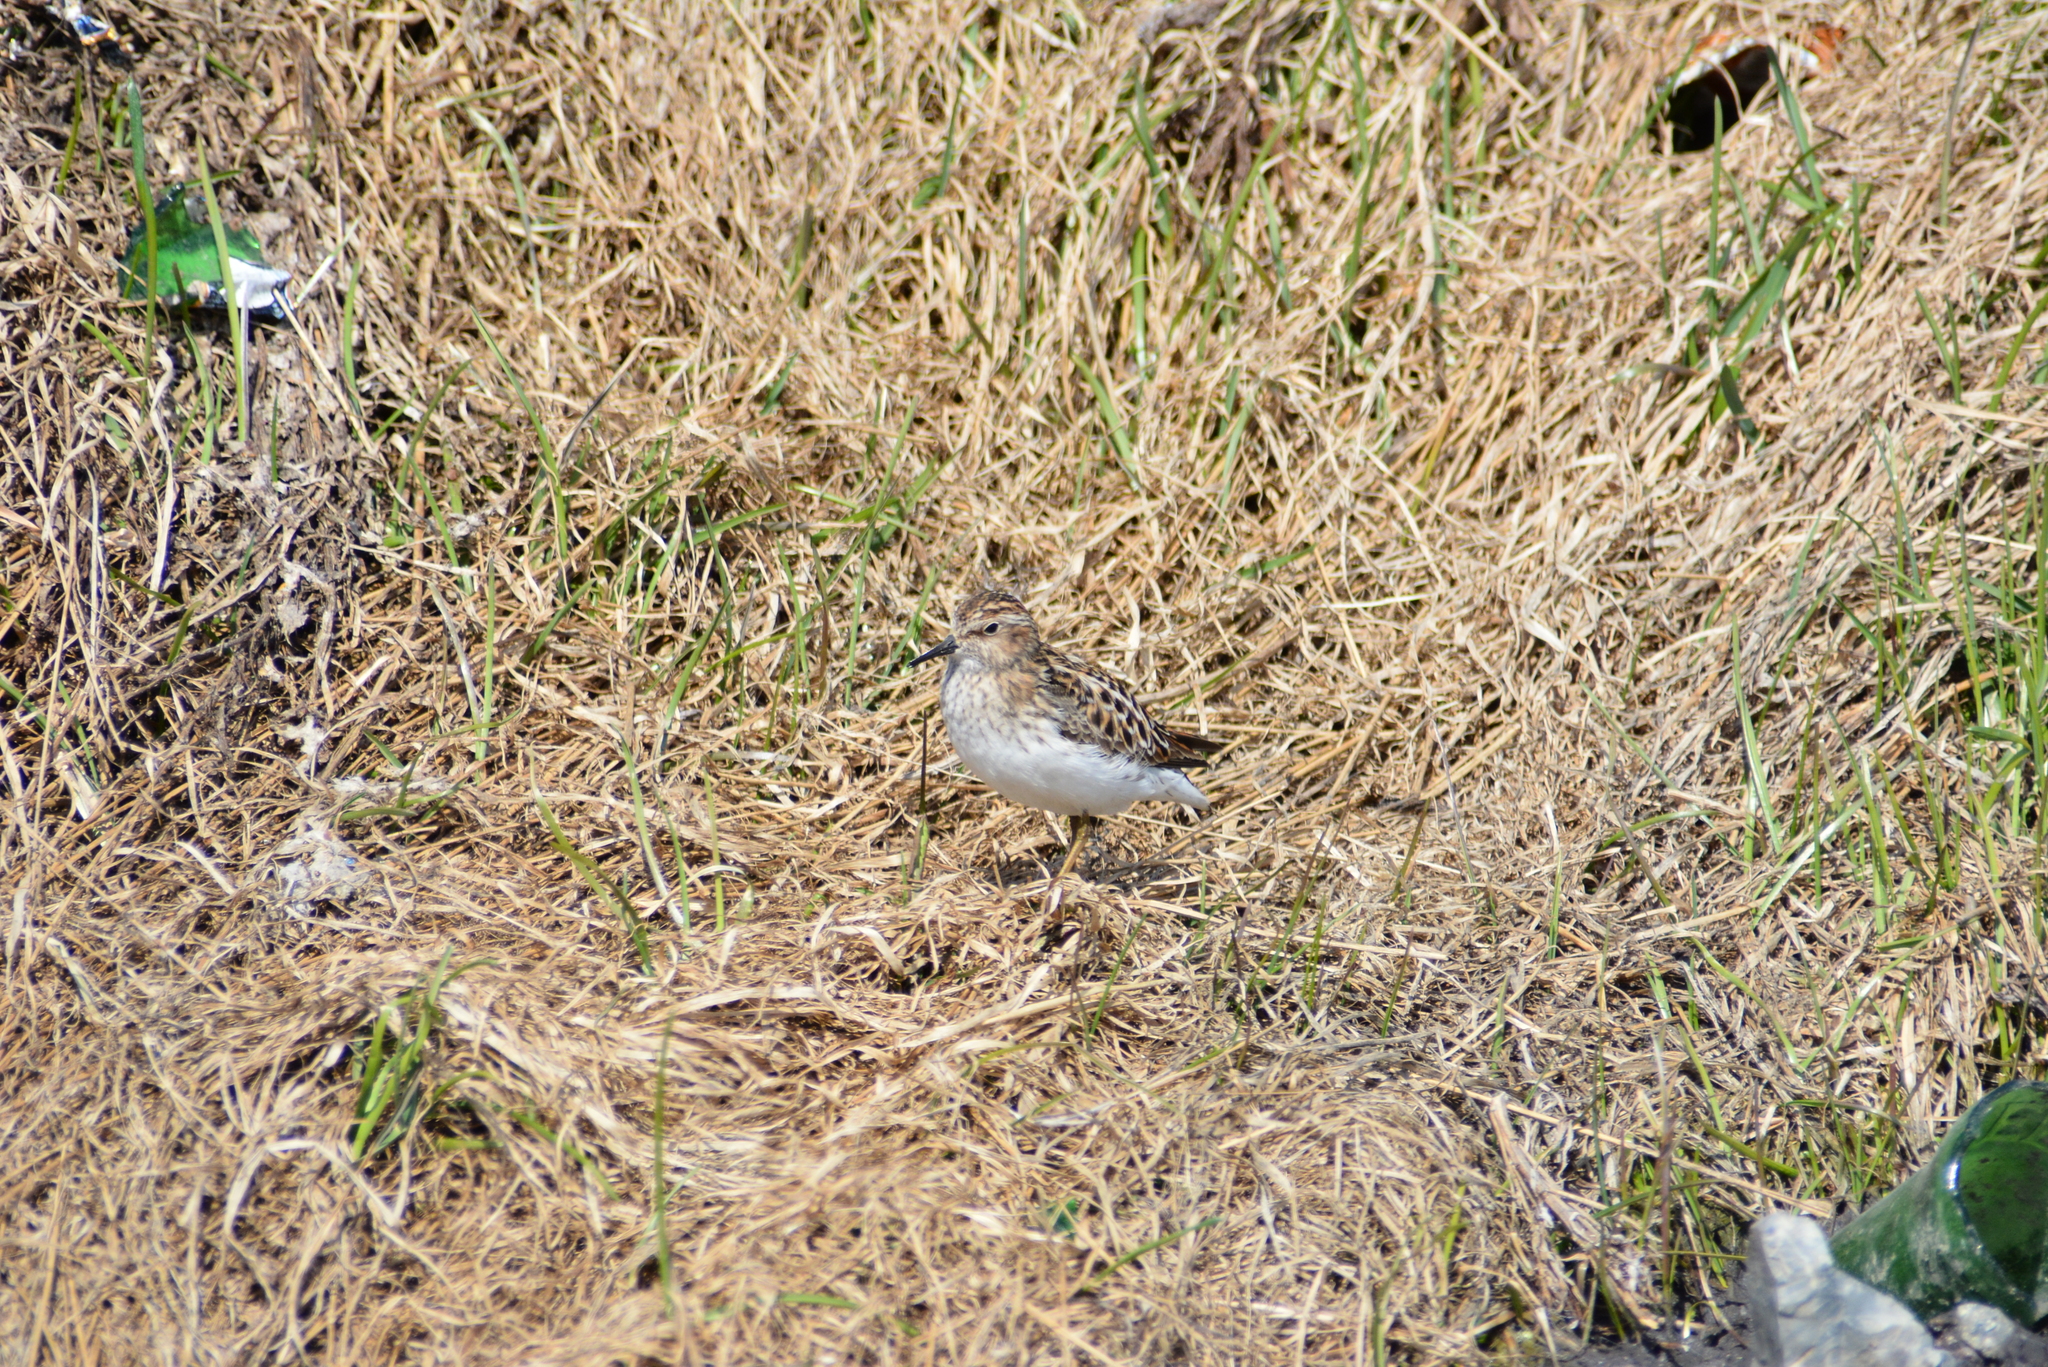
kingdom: Animalia
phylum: Chordata
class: Aves
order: Charadriiformes
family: Scolopacidae
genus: Calidris
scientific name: Calidris minutilla
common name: Least sandpiper
